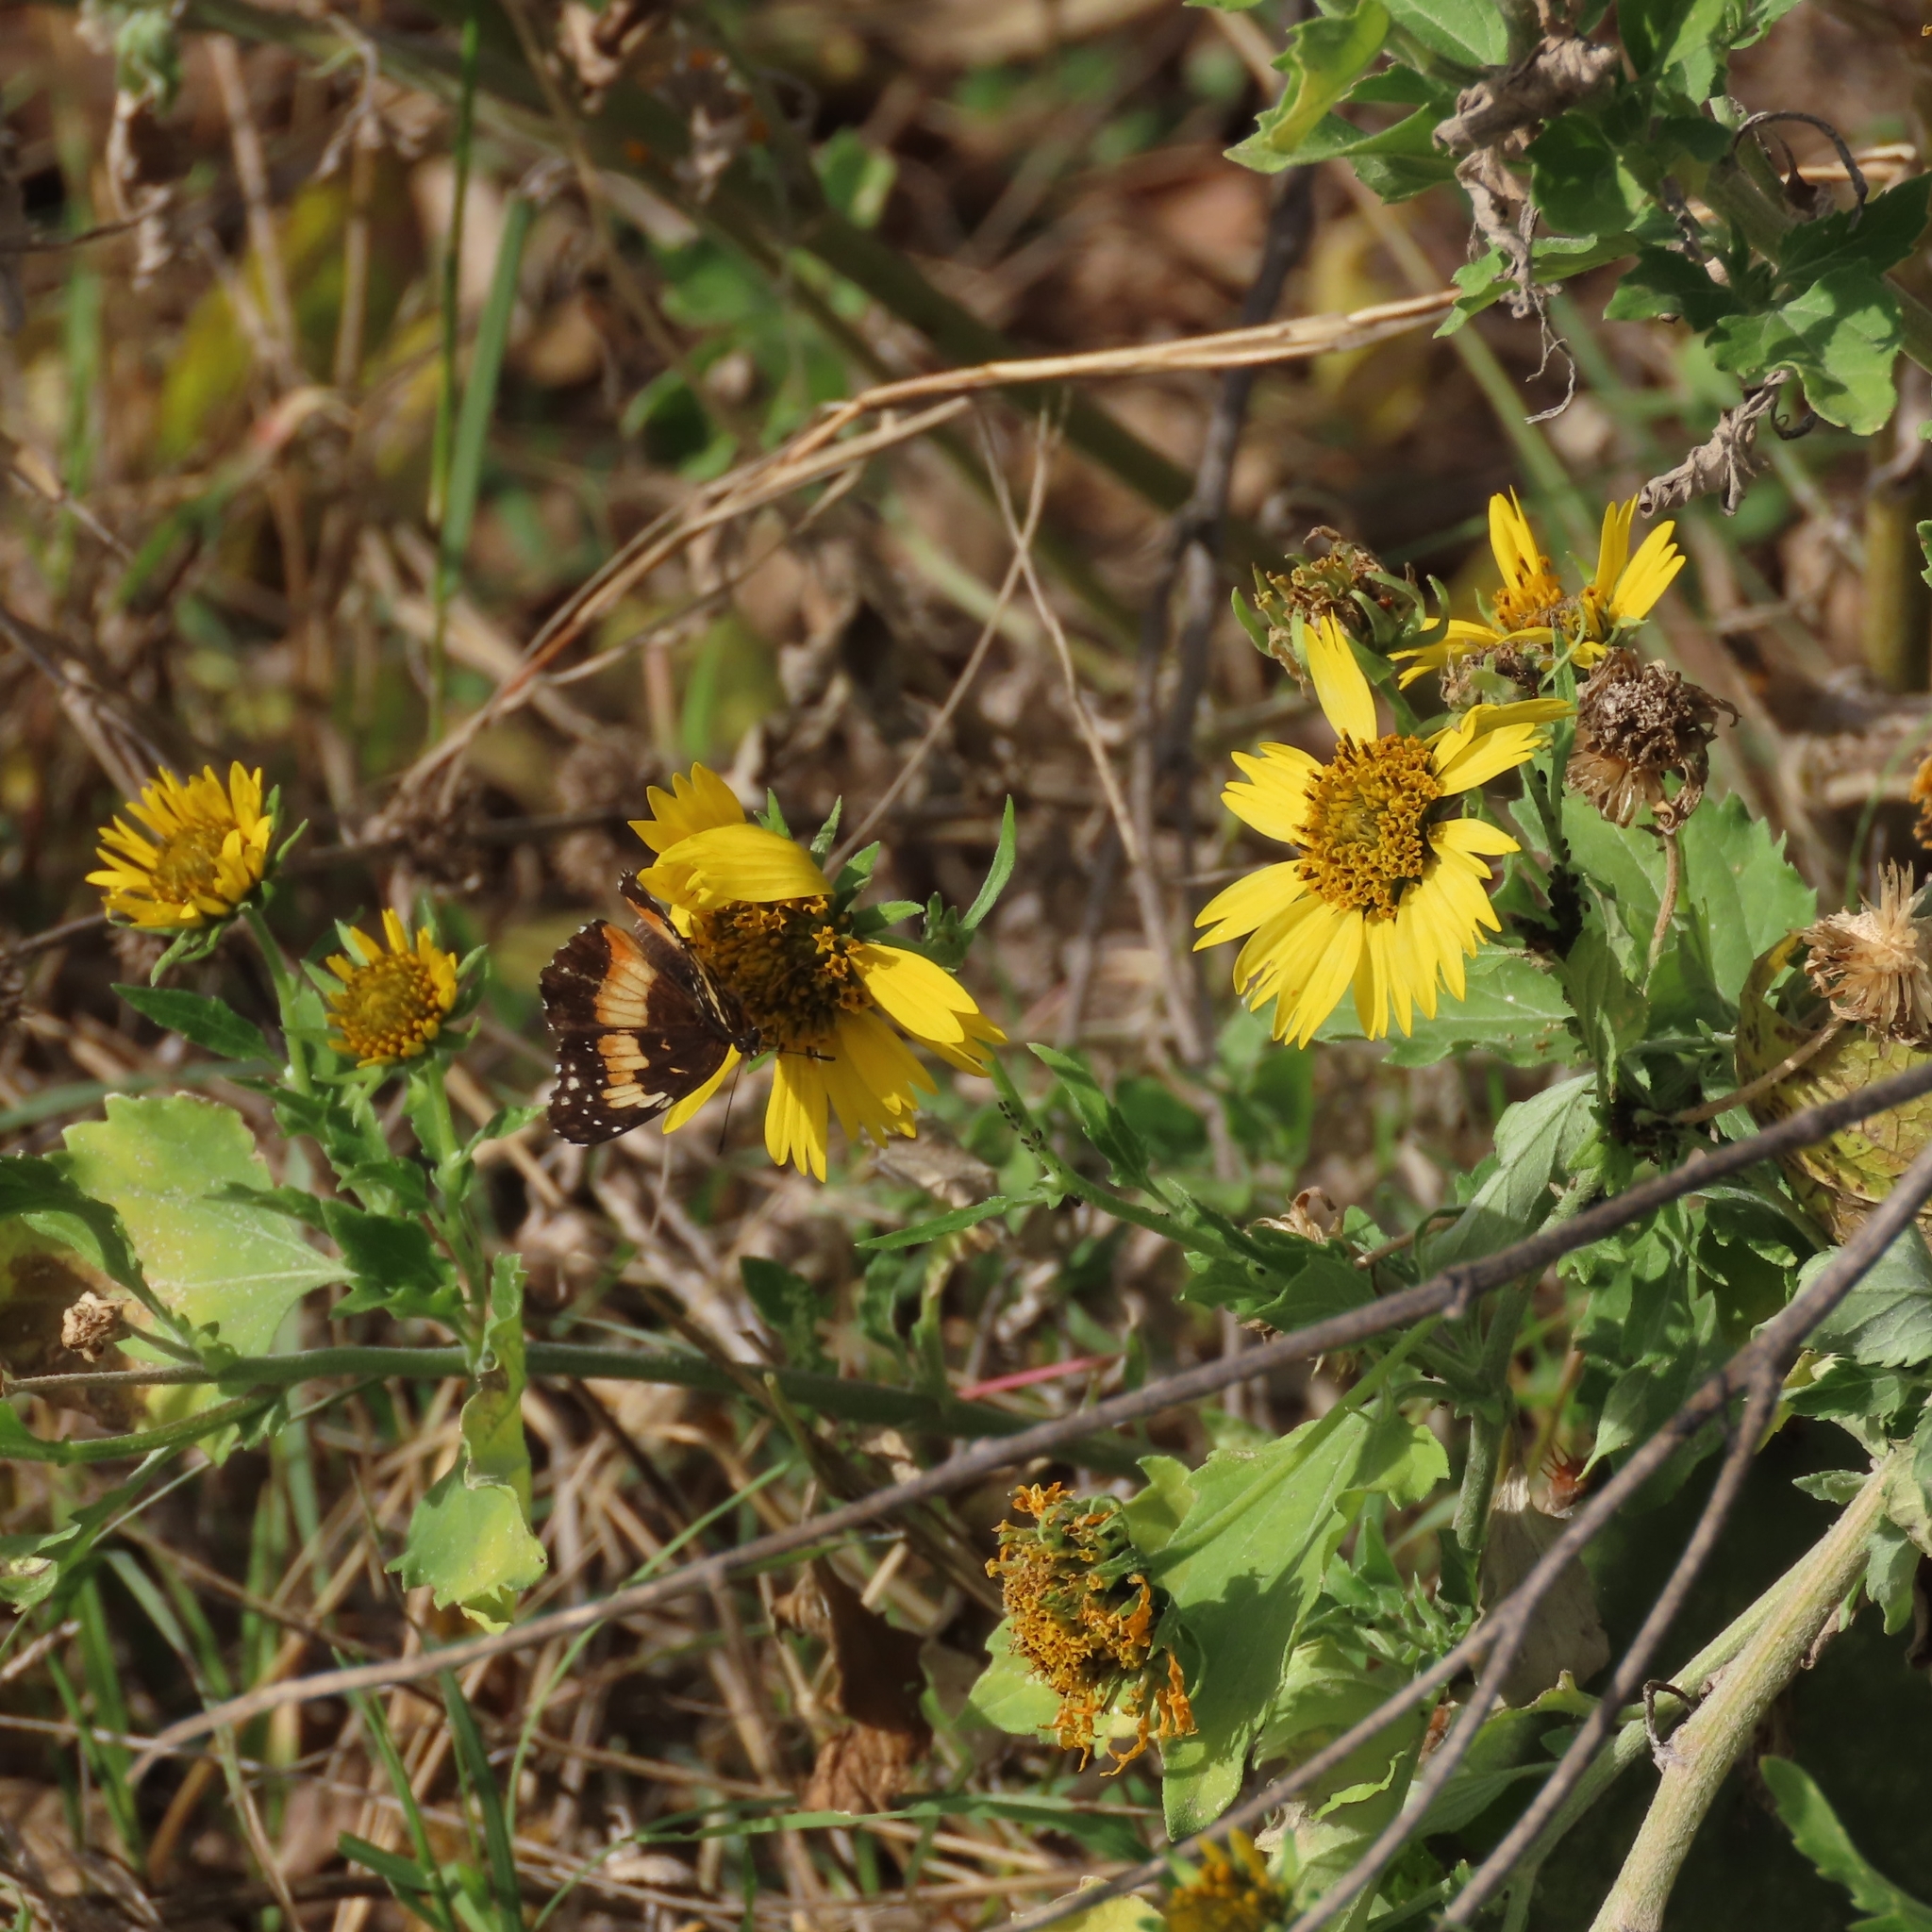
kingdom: Animalia
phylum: Arthropoda
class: Insecta
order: Lepidoptera
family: Nymphalidae
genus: Chlosyne
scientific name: Chlosyne lacinia
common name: Bordered patch
